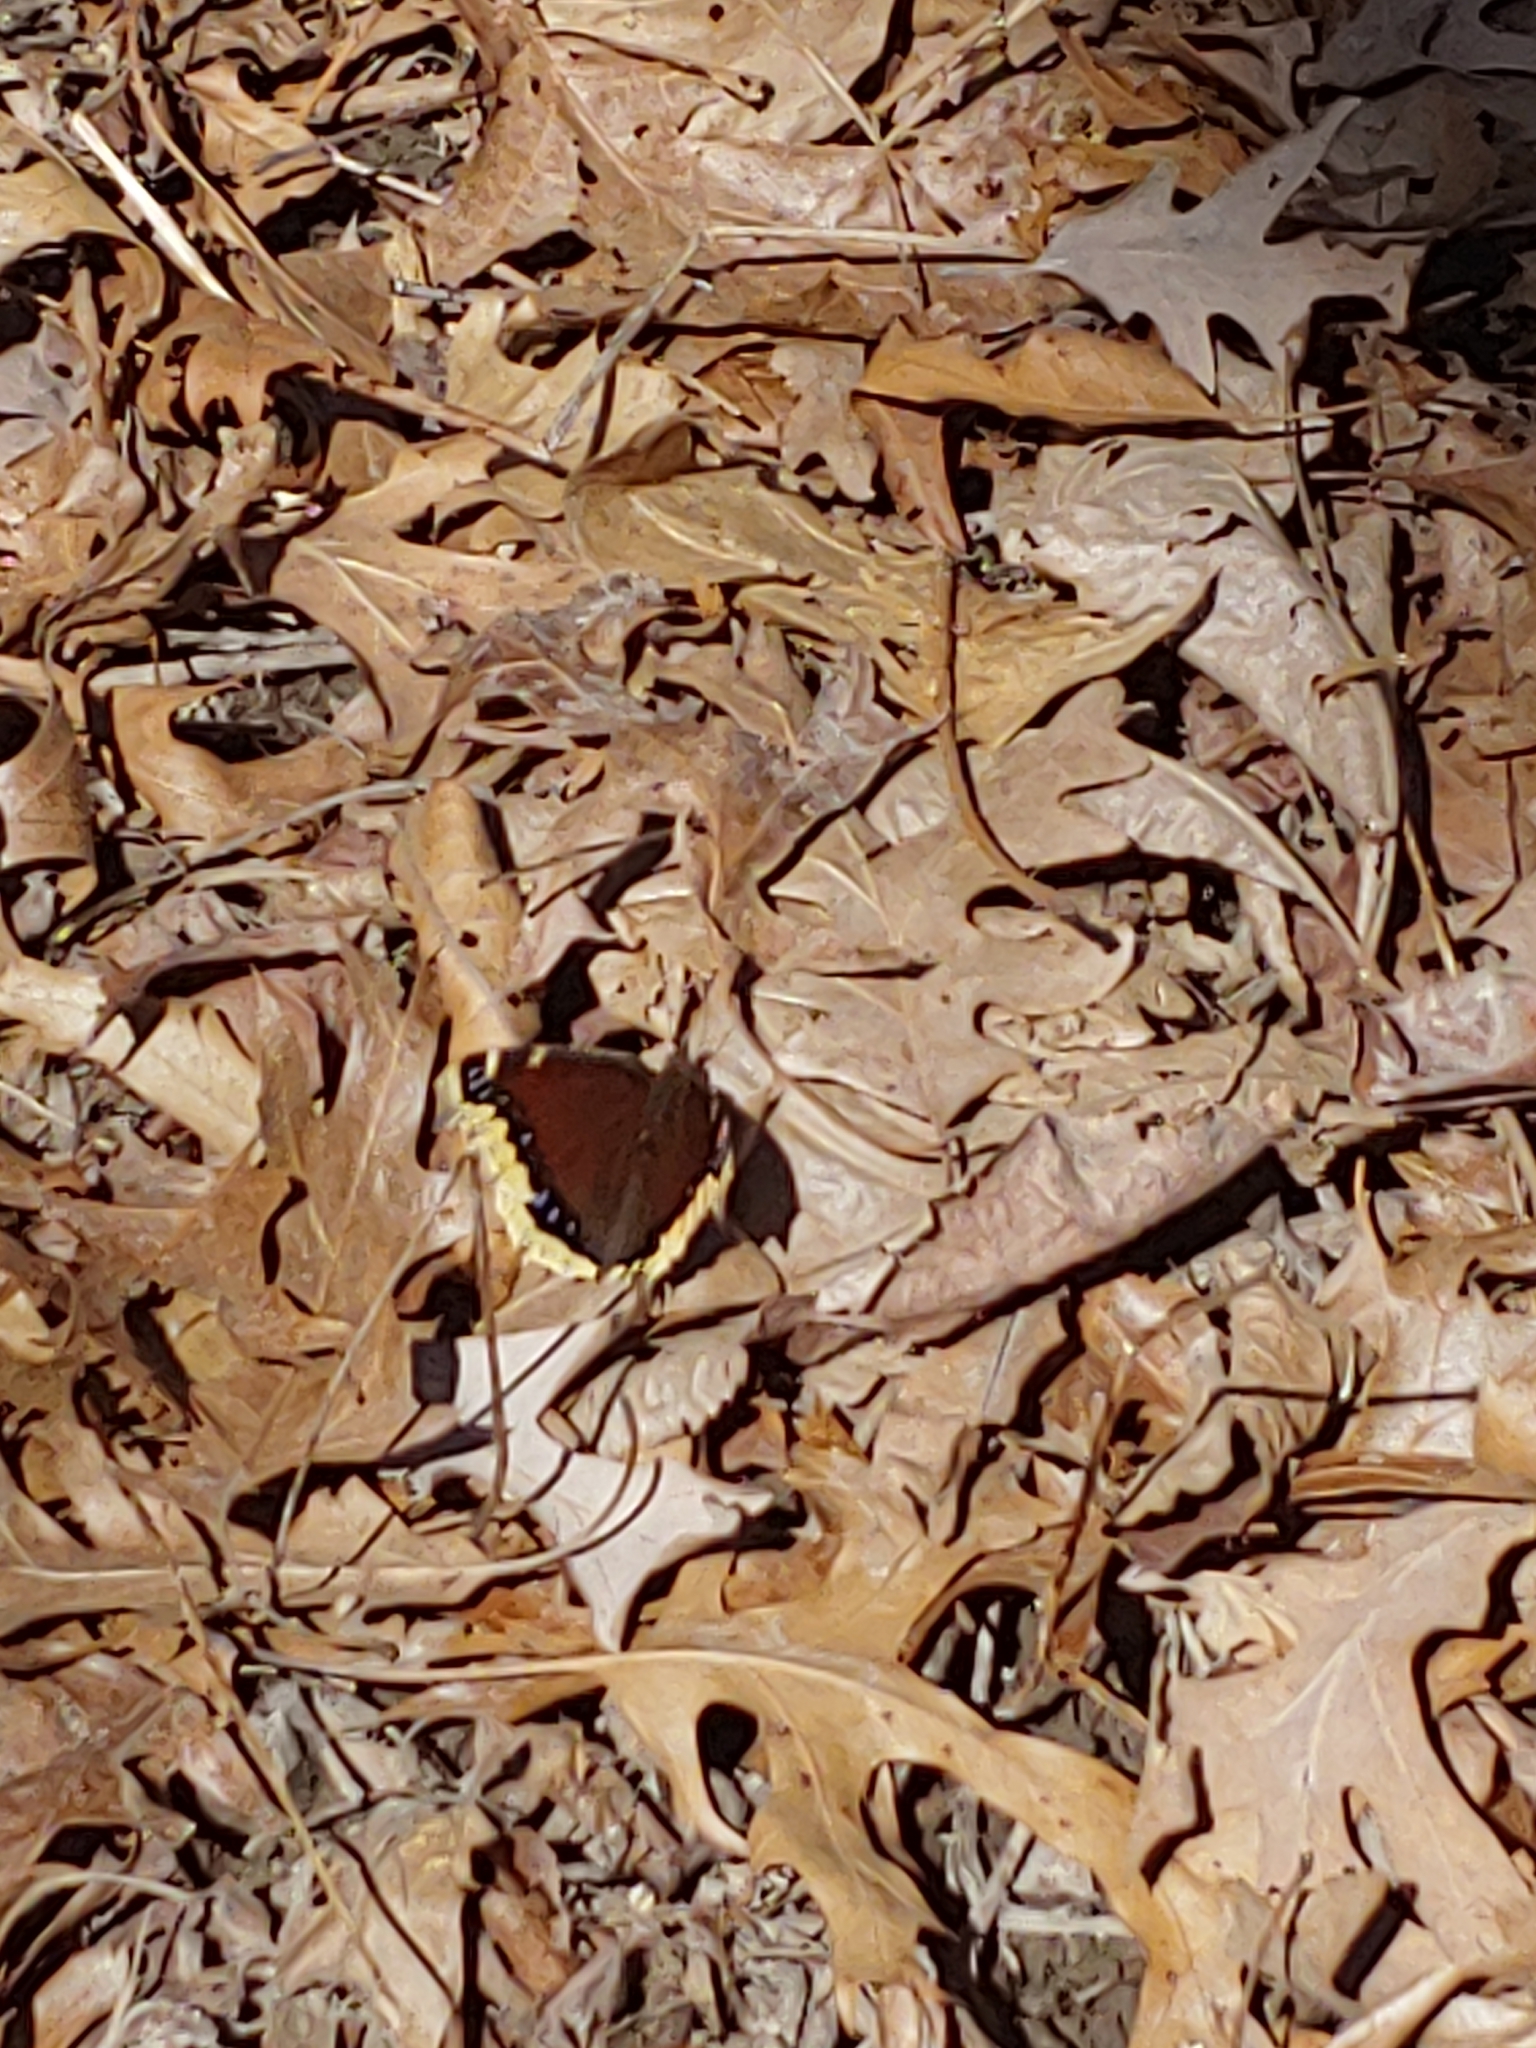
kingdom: Animalia
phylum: Arthropoda
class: Insecta
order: Lepidoptera
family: Nymphalidae
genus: Nymphalis
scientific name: Nymphalis antiopa
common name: Camberwell beauty
